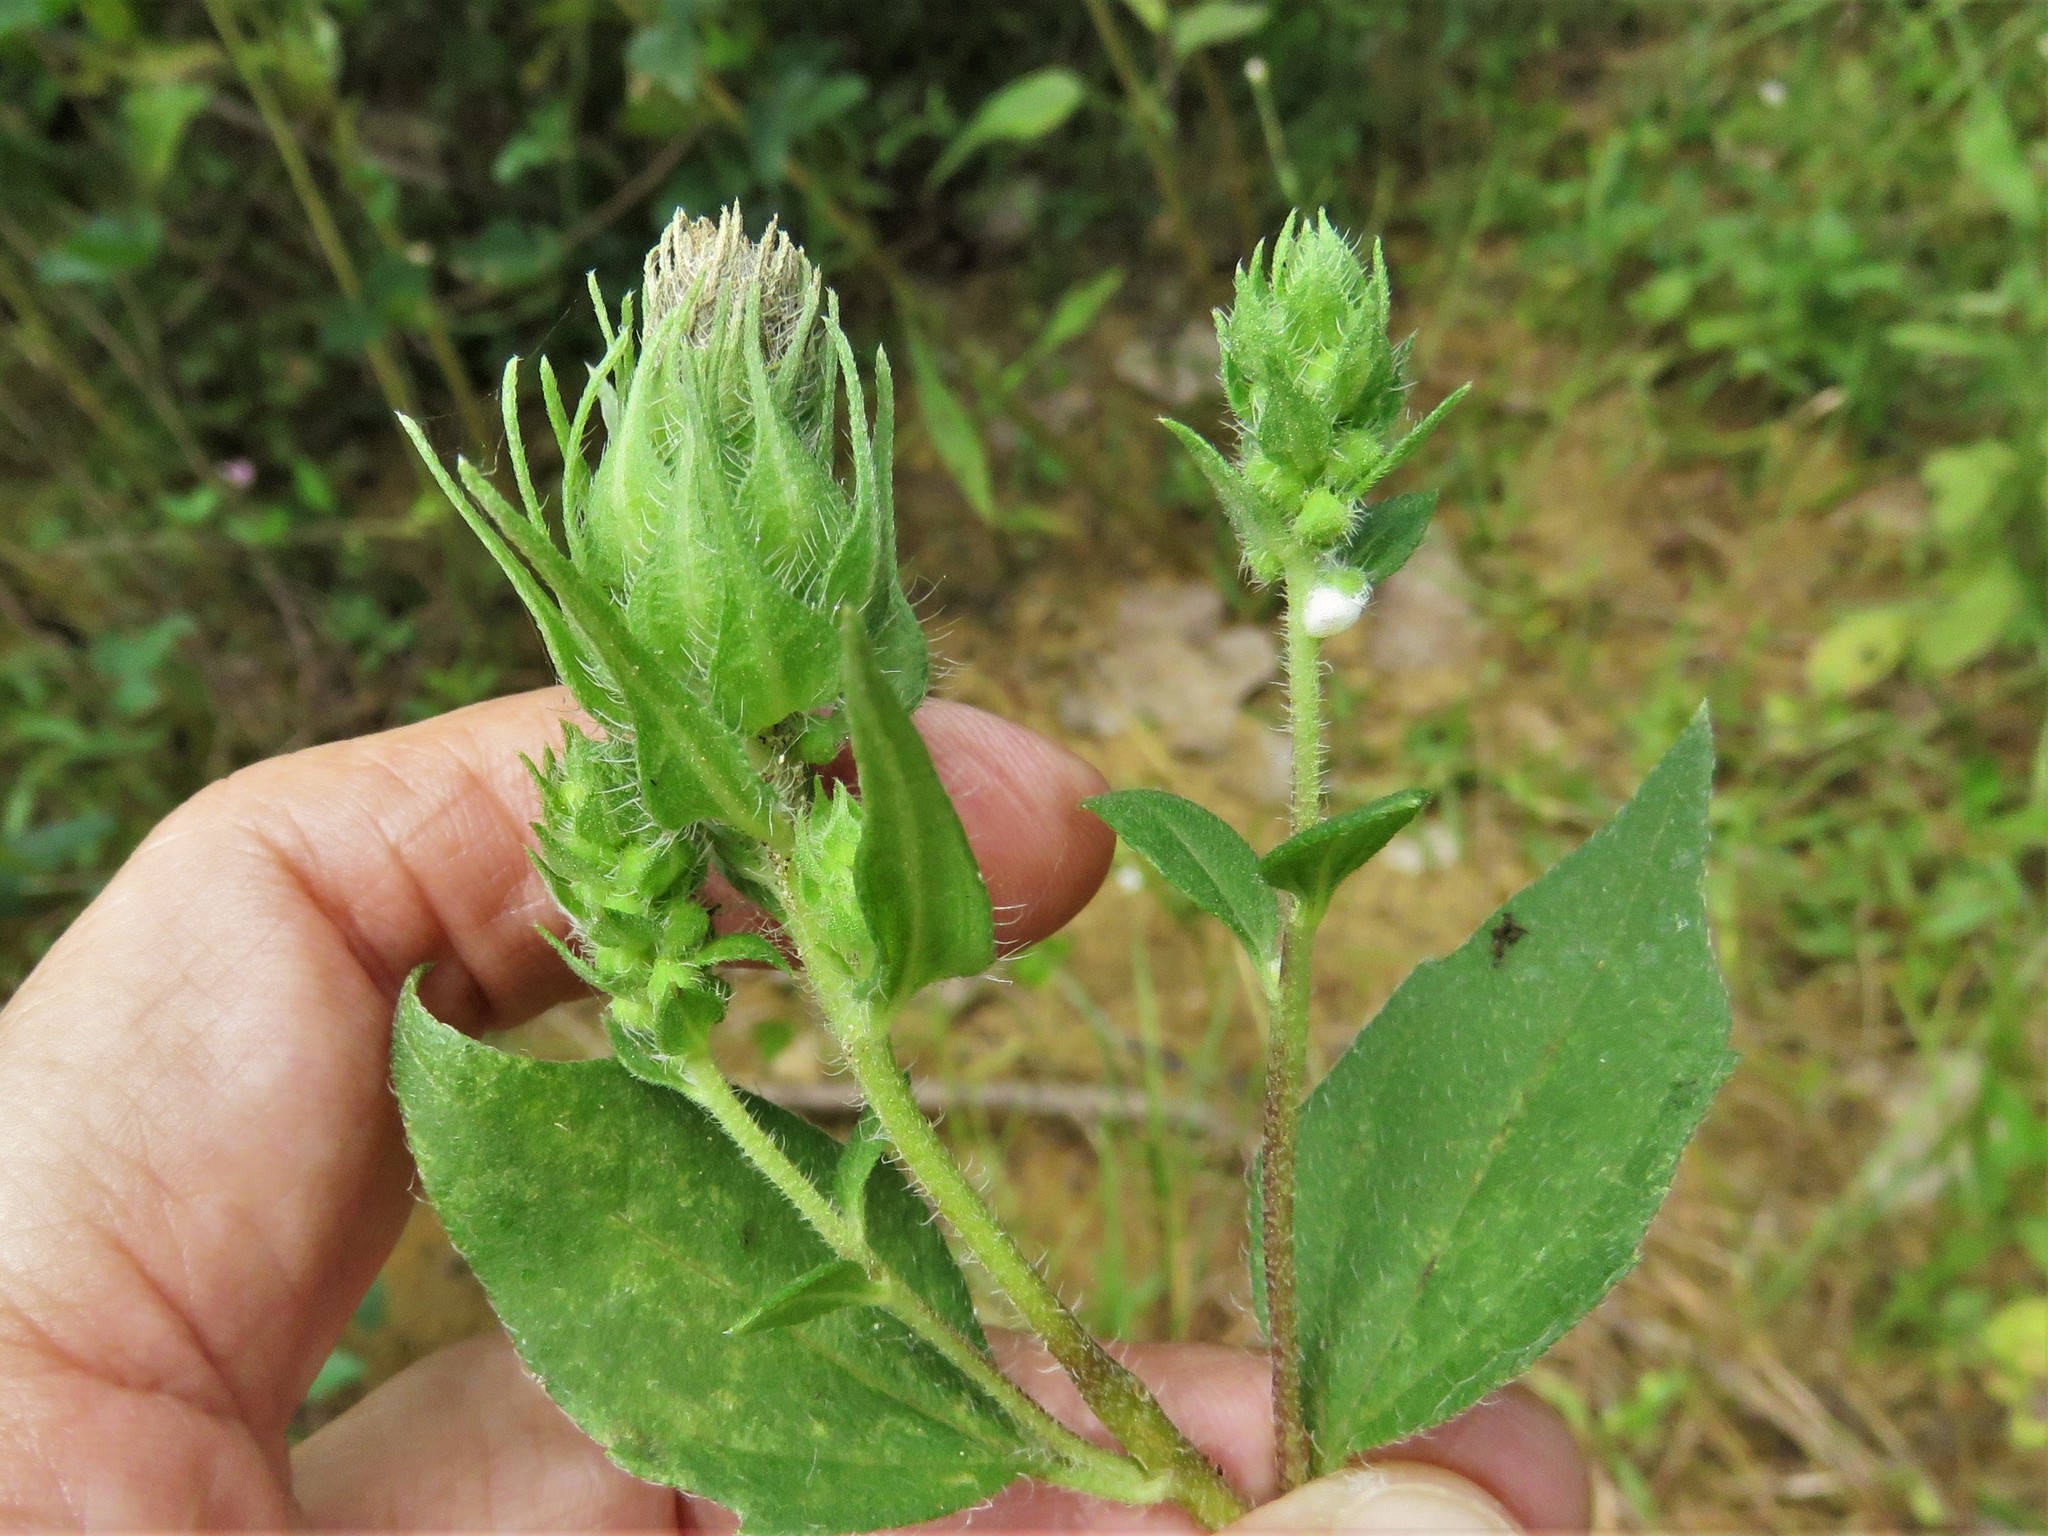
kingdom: Plantae
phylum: Tracheophyta
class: Magnoliopsida
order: Asterales
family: Asteraceae
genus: Iva
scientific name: Iva annua
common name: Marsh-elder
